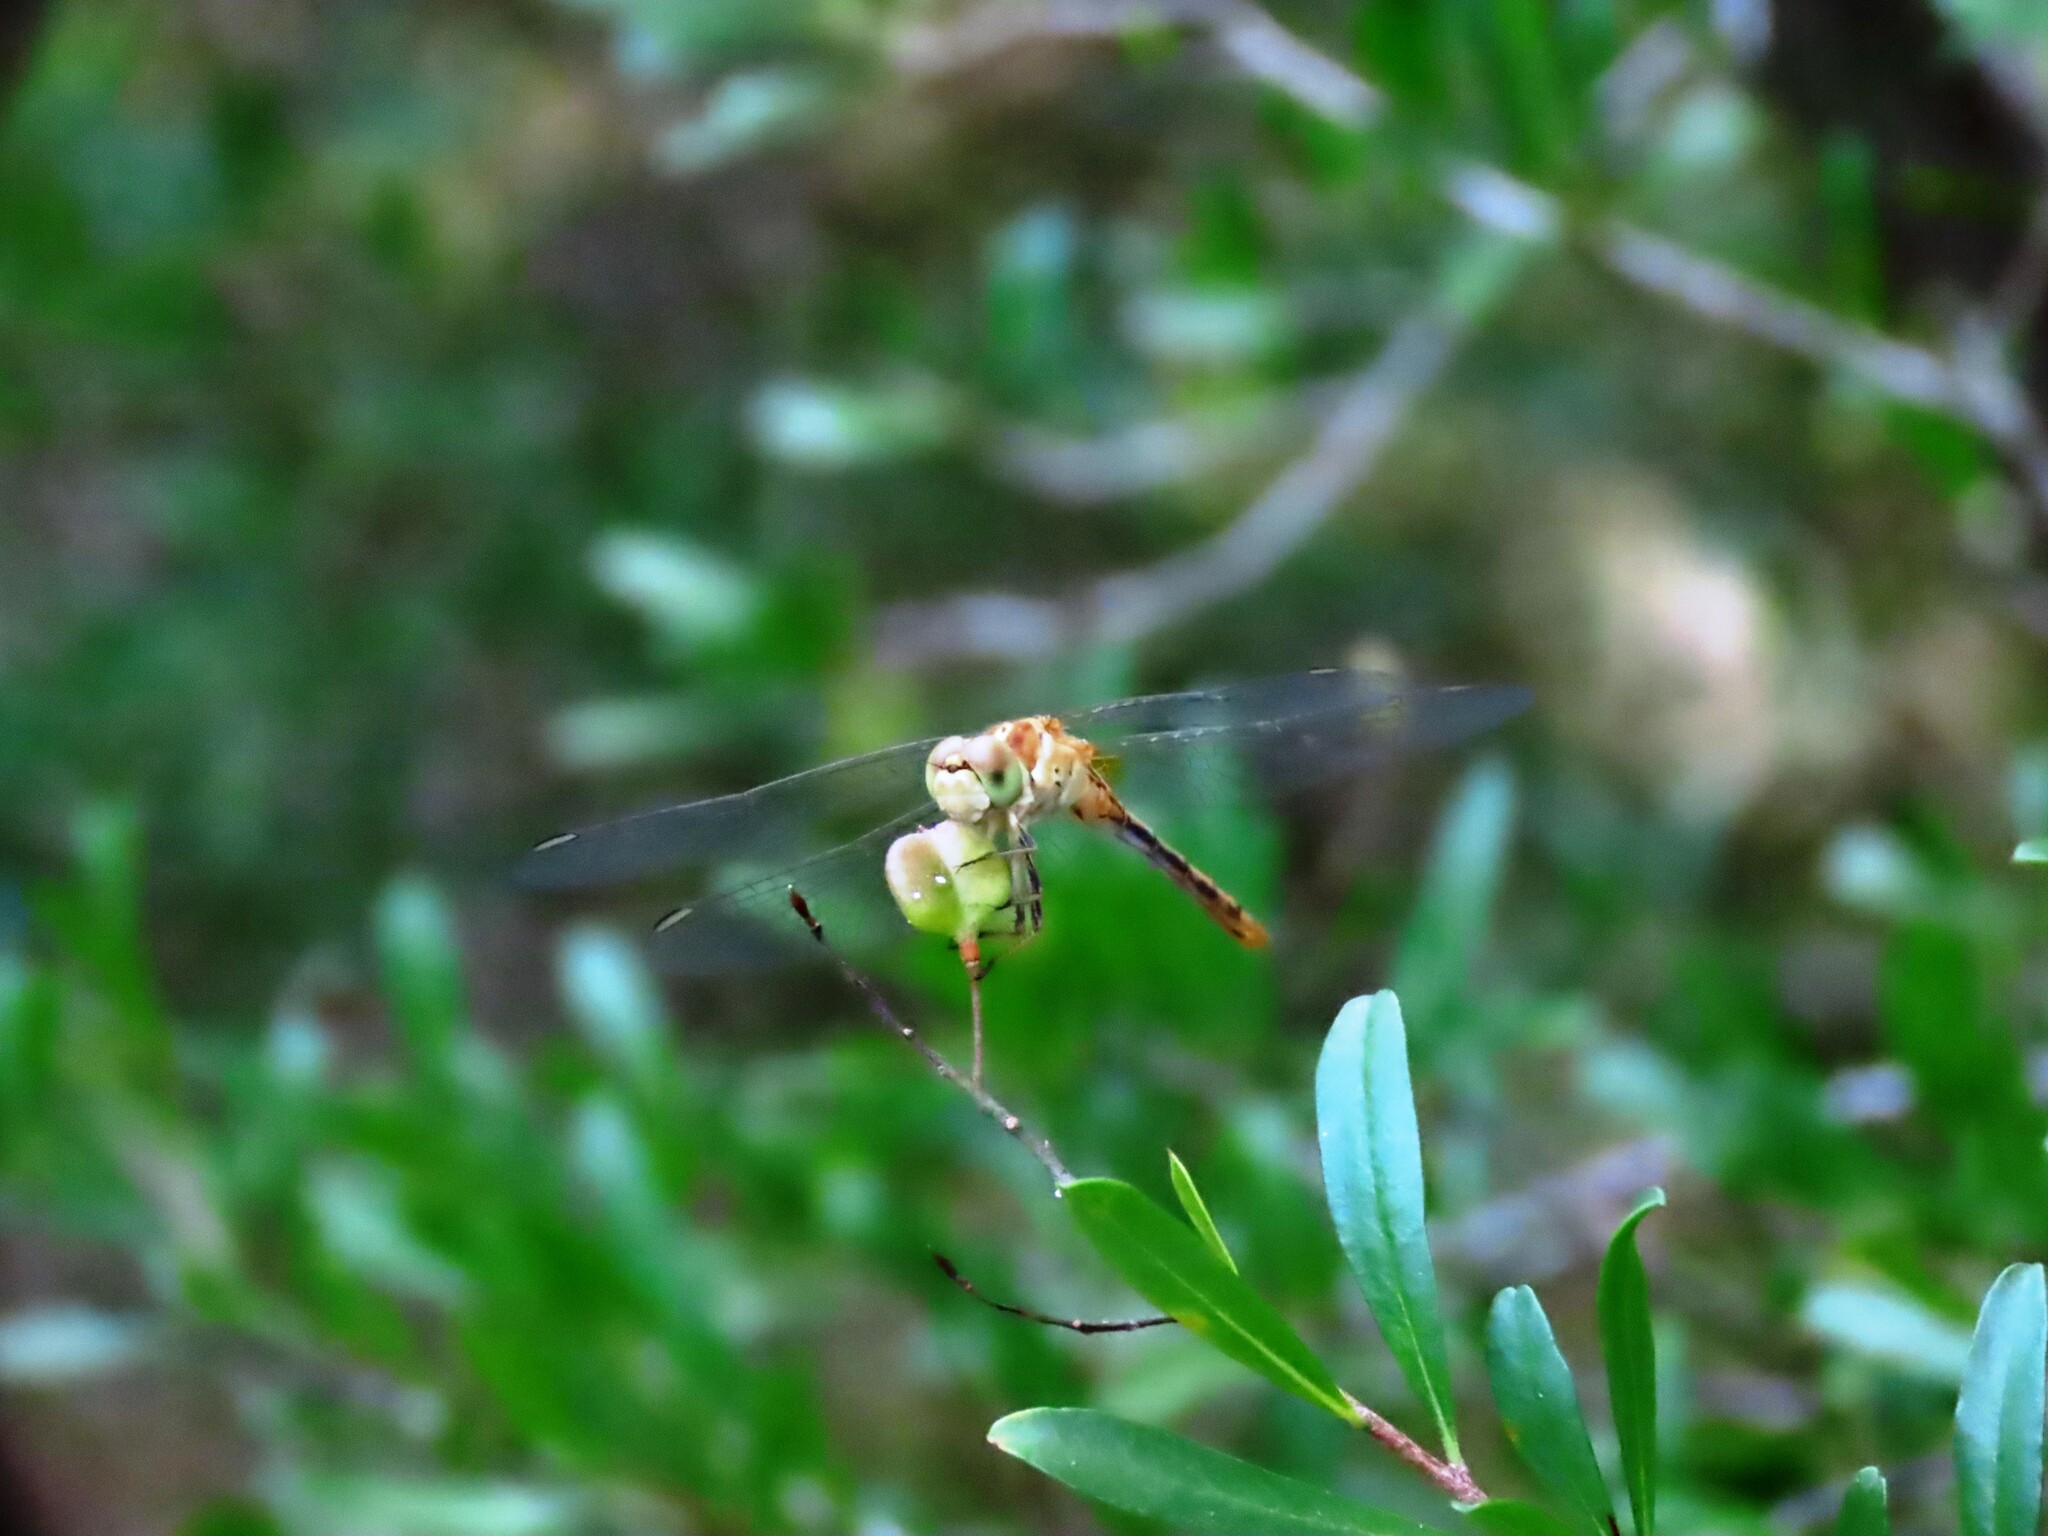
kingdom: Animalia
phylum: Arthropoda
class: Insecta
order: Odonata
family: Libellulidae
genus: Diplacodes
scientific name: Diplacodes bipunctata
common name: Red percher dragonfly
